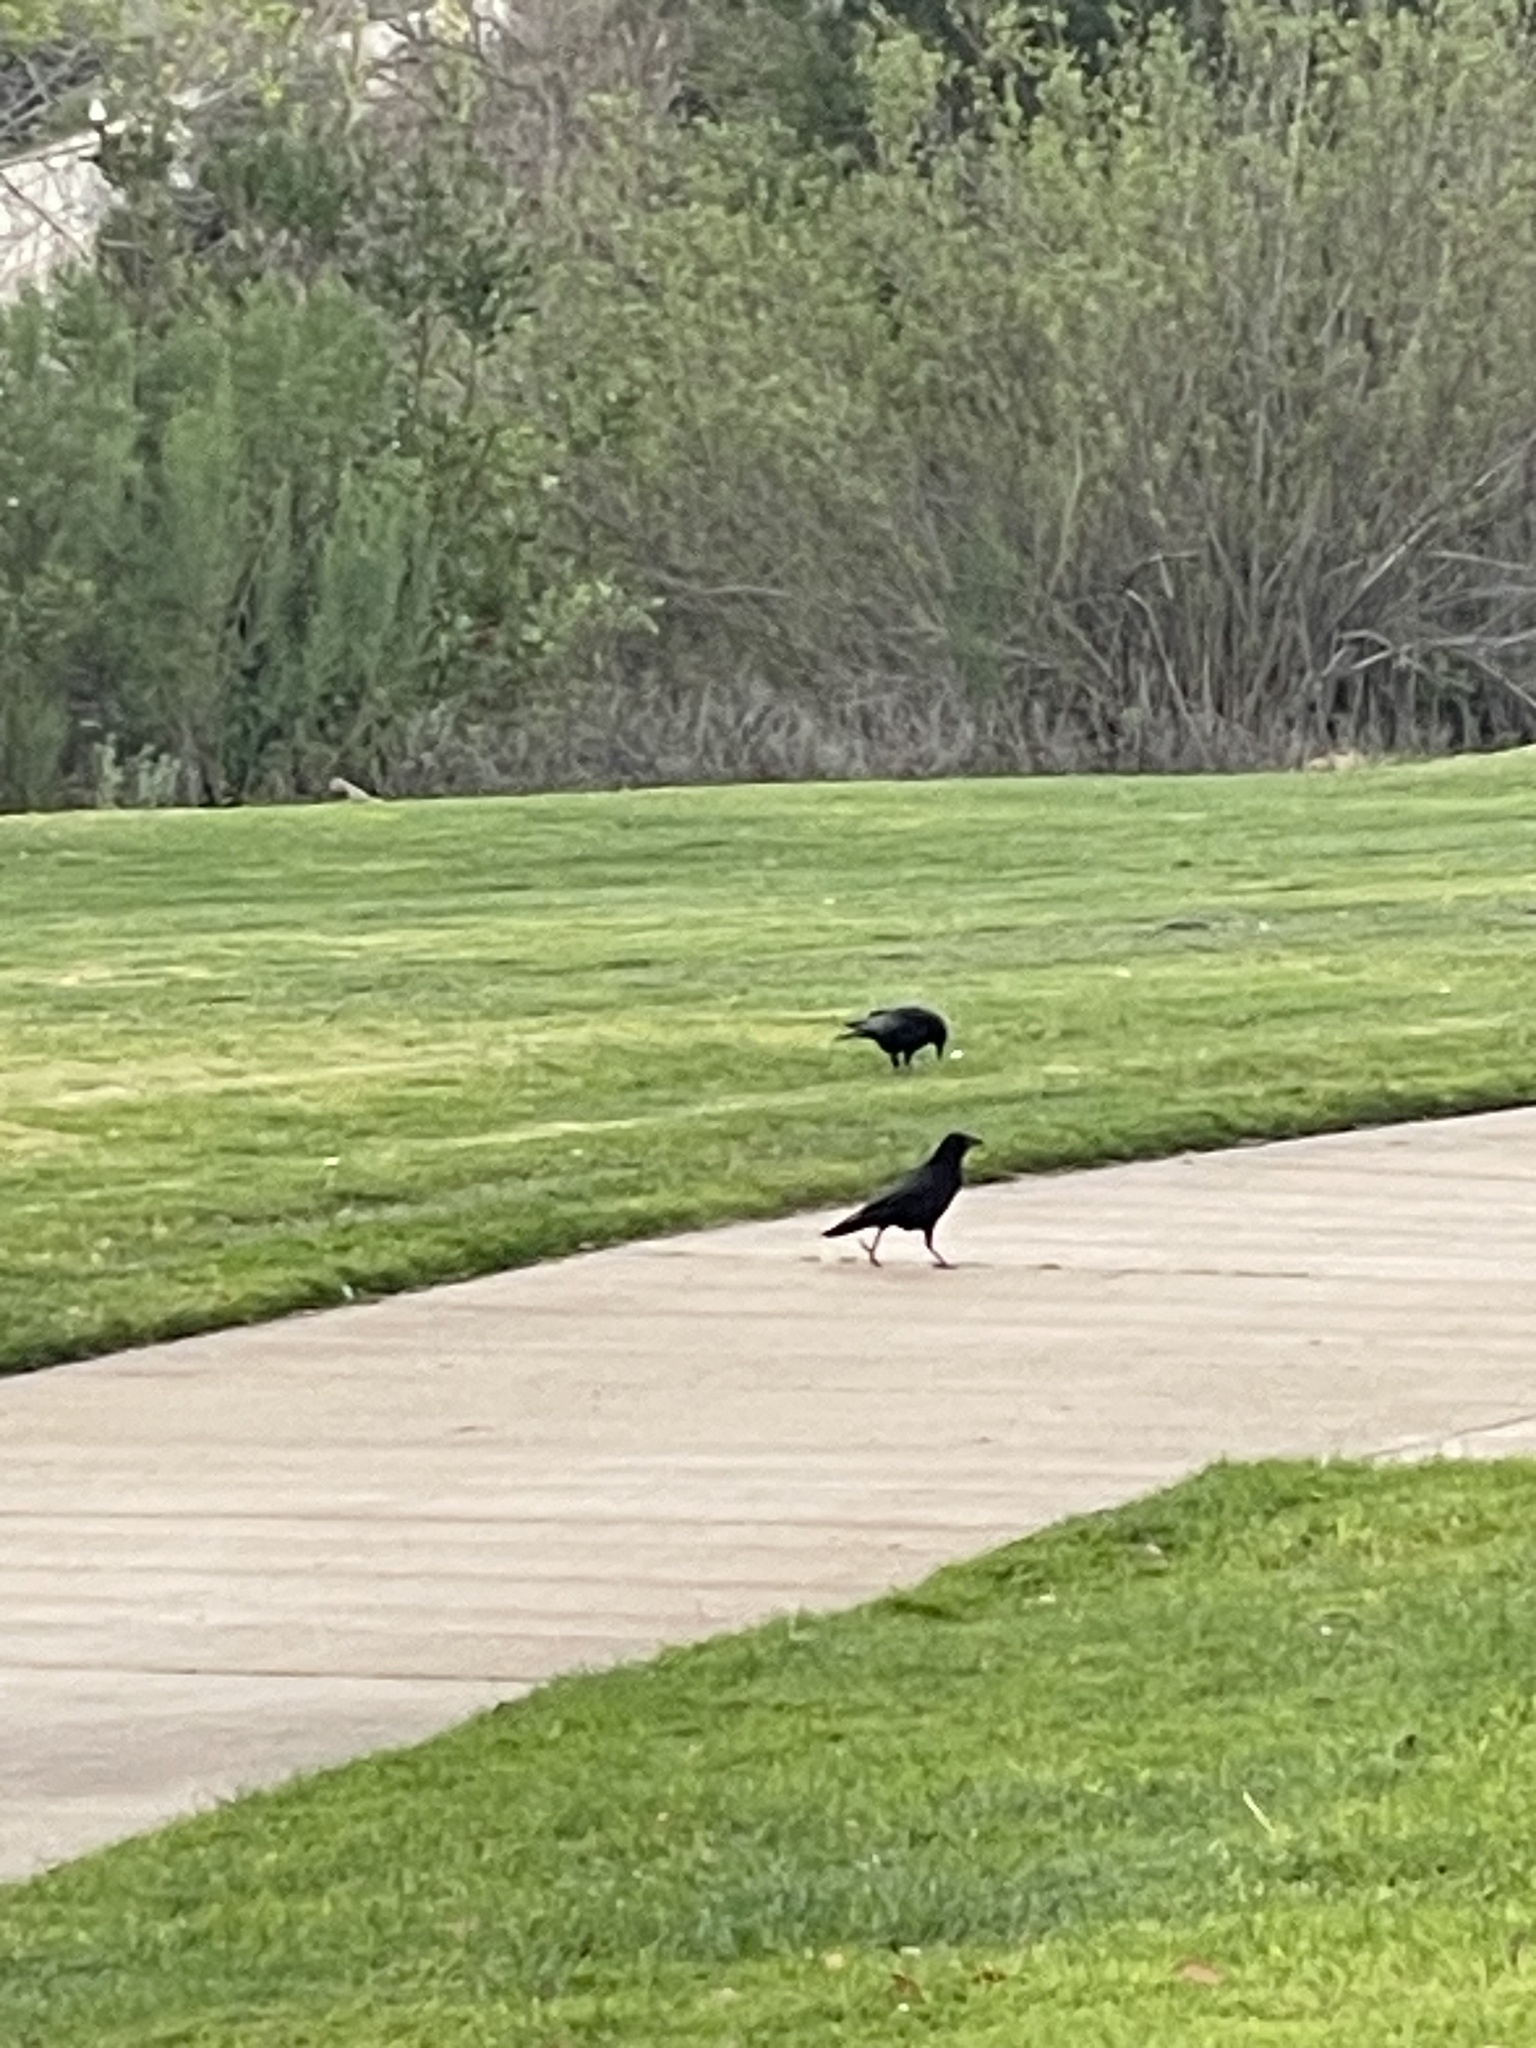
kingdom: Animalia
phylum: Chordata
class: Aves
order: Passeriformes
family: Corvidae
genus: Corvus
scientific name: Corvus brachyrhynchos
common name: American crow
